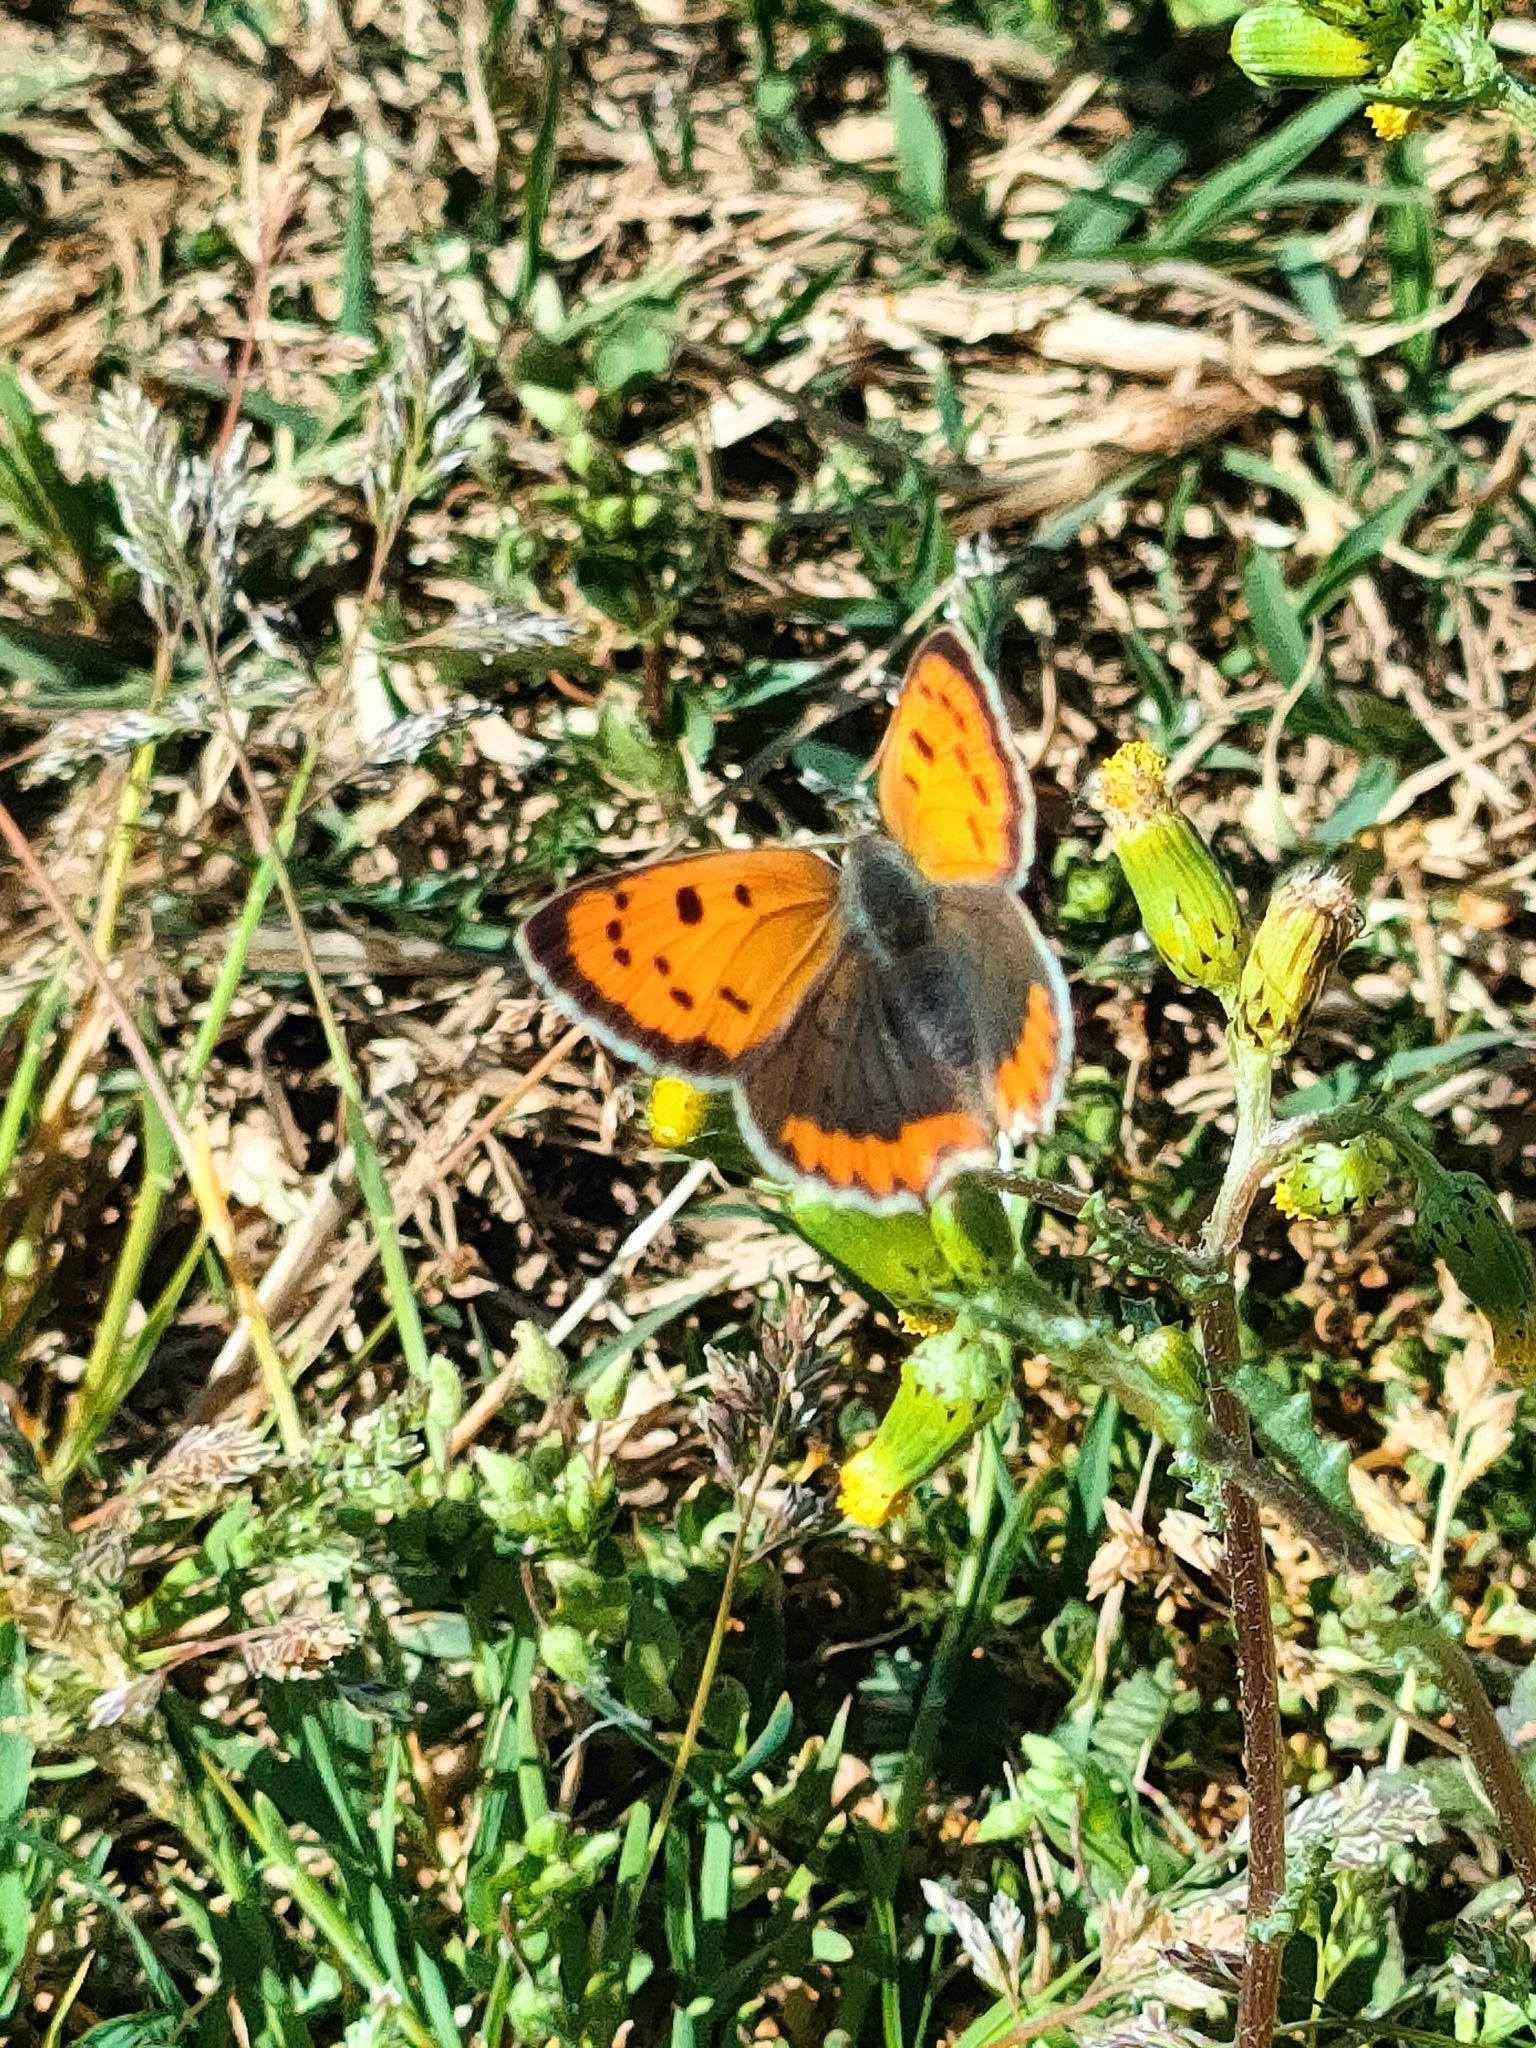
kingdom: Animalia
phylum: Arthropoda
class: Insecta
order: Lepidoptera
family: Lycaenidae
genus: Lycaena
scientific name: Lycaena phlaeas
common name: Small copper
